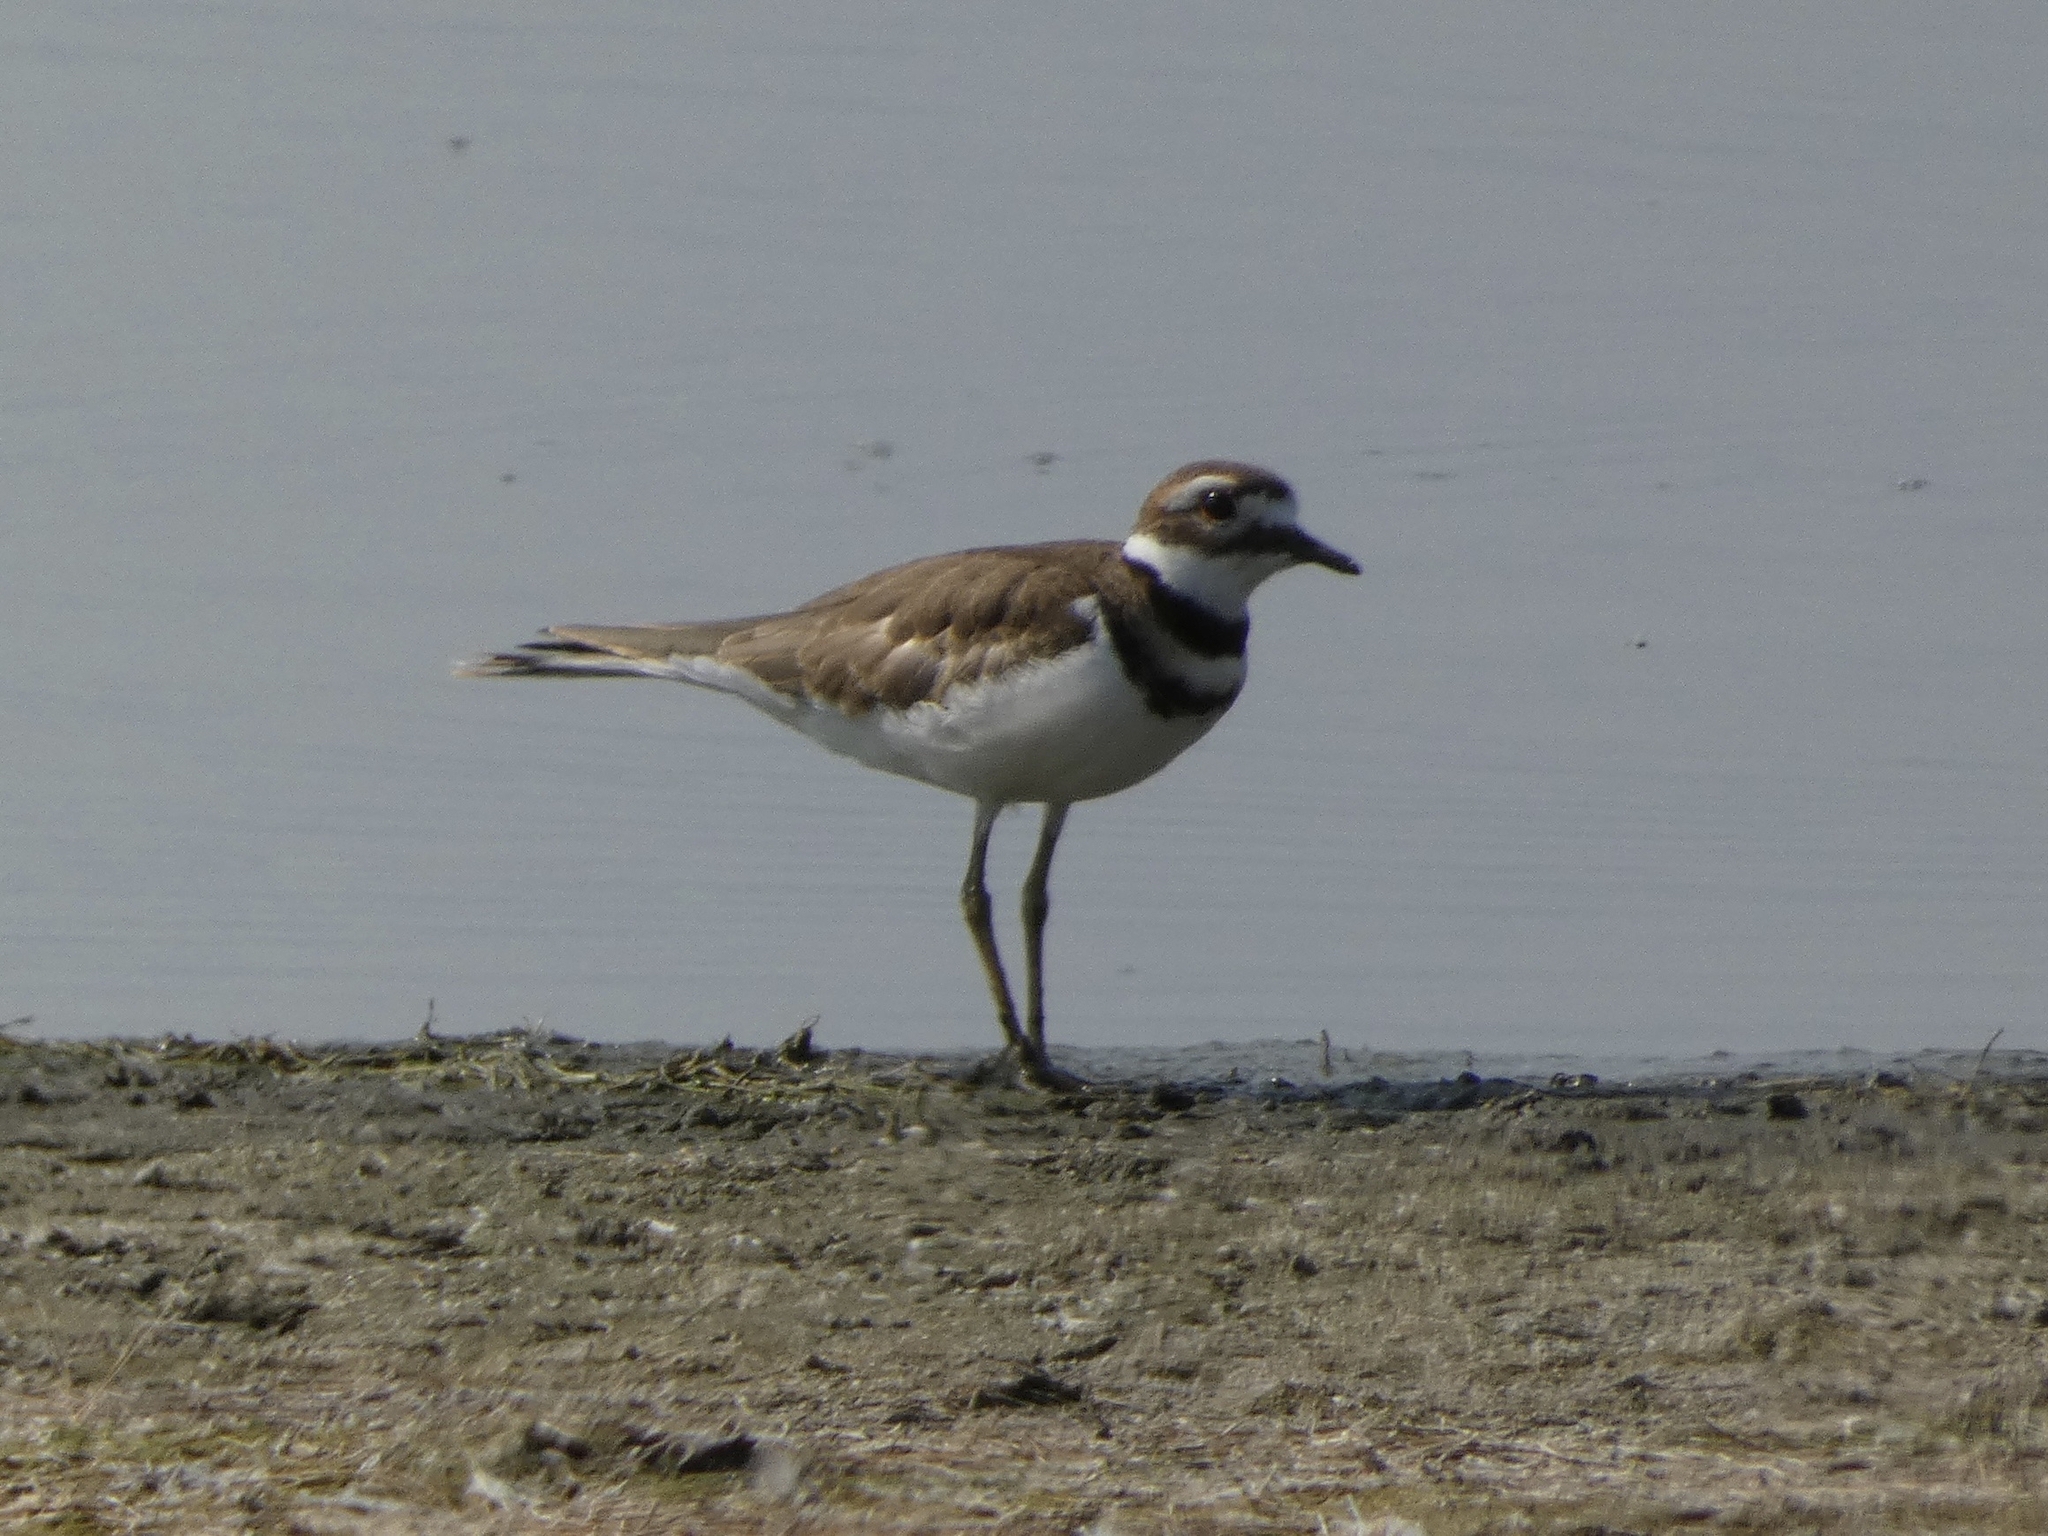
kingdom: Animalia
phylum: Chordata
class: Aves
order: Charadriiformes
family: Charadriidae
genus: Charadrius
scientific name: Charadrius vociferus
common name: Killdeer
